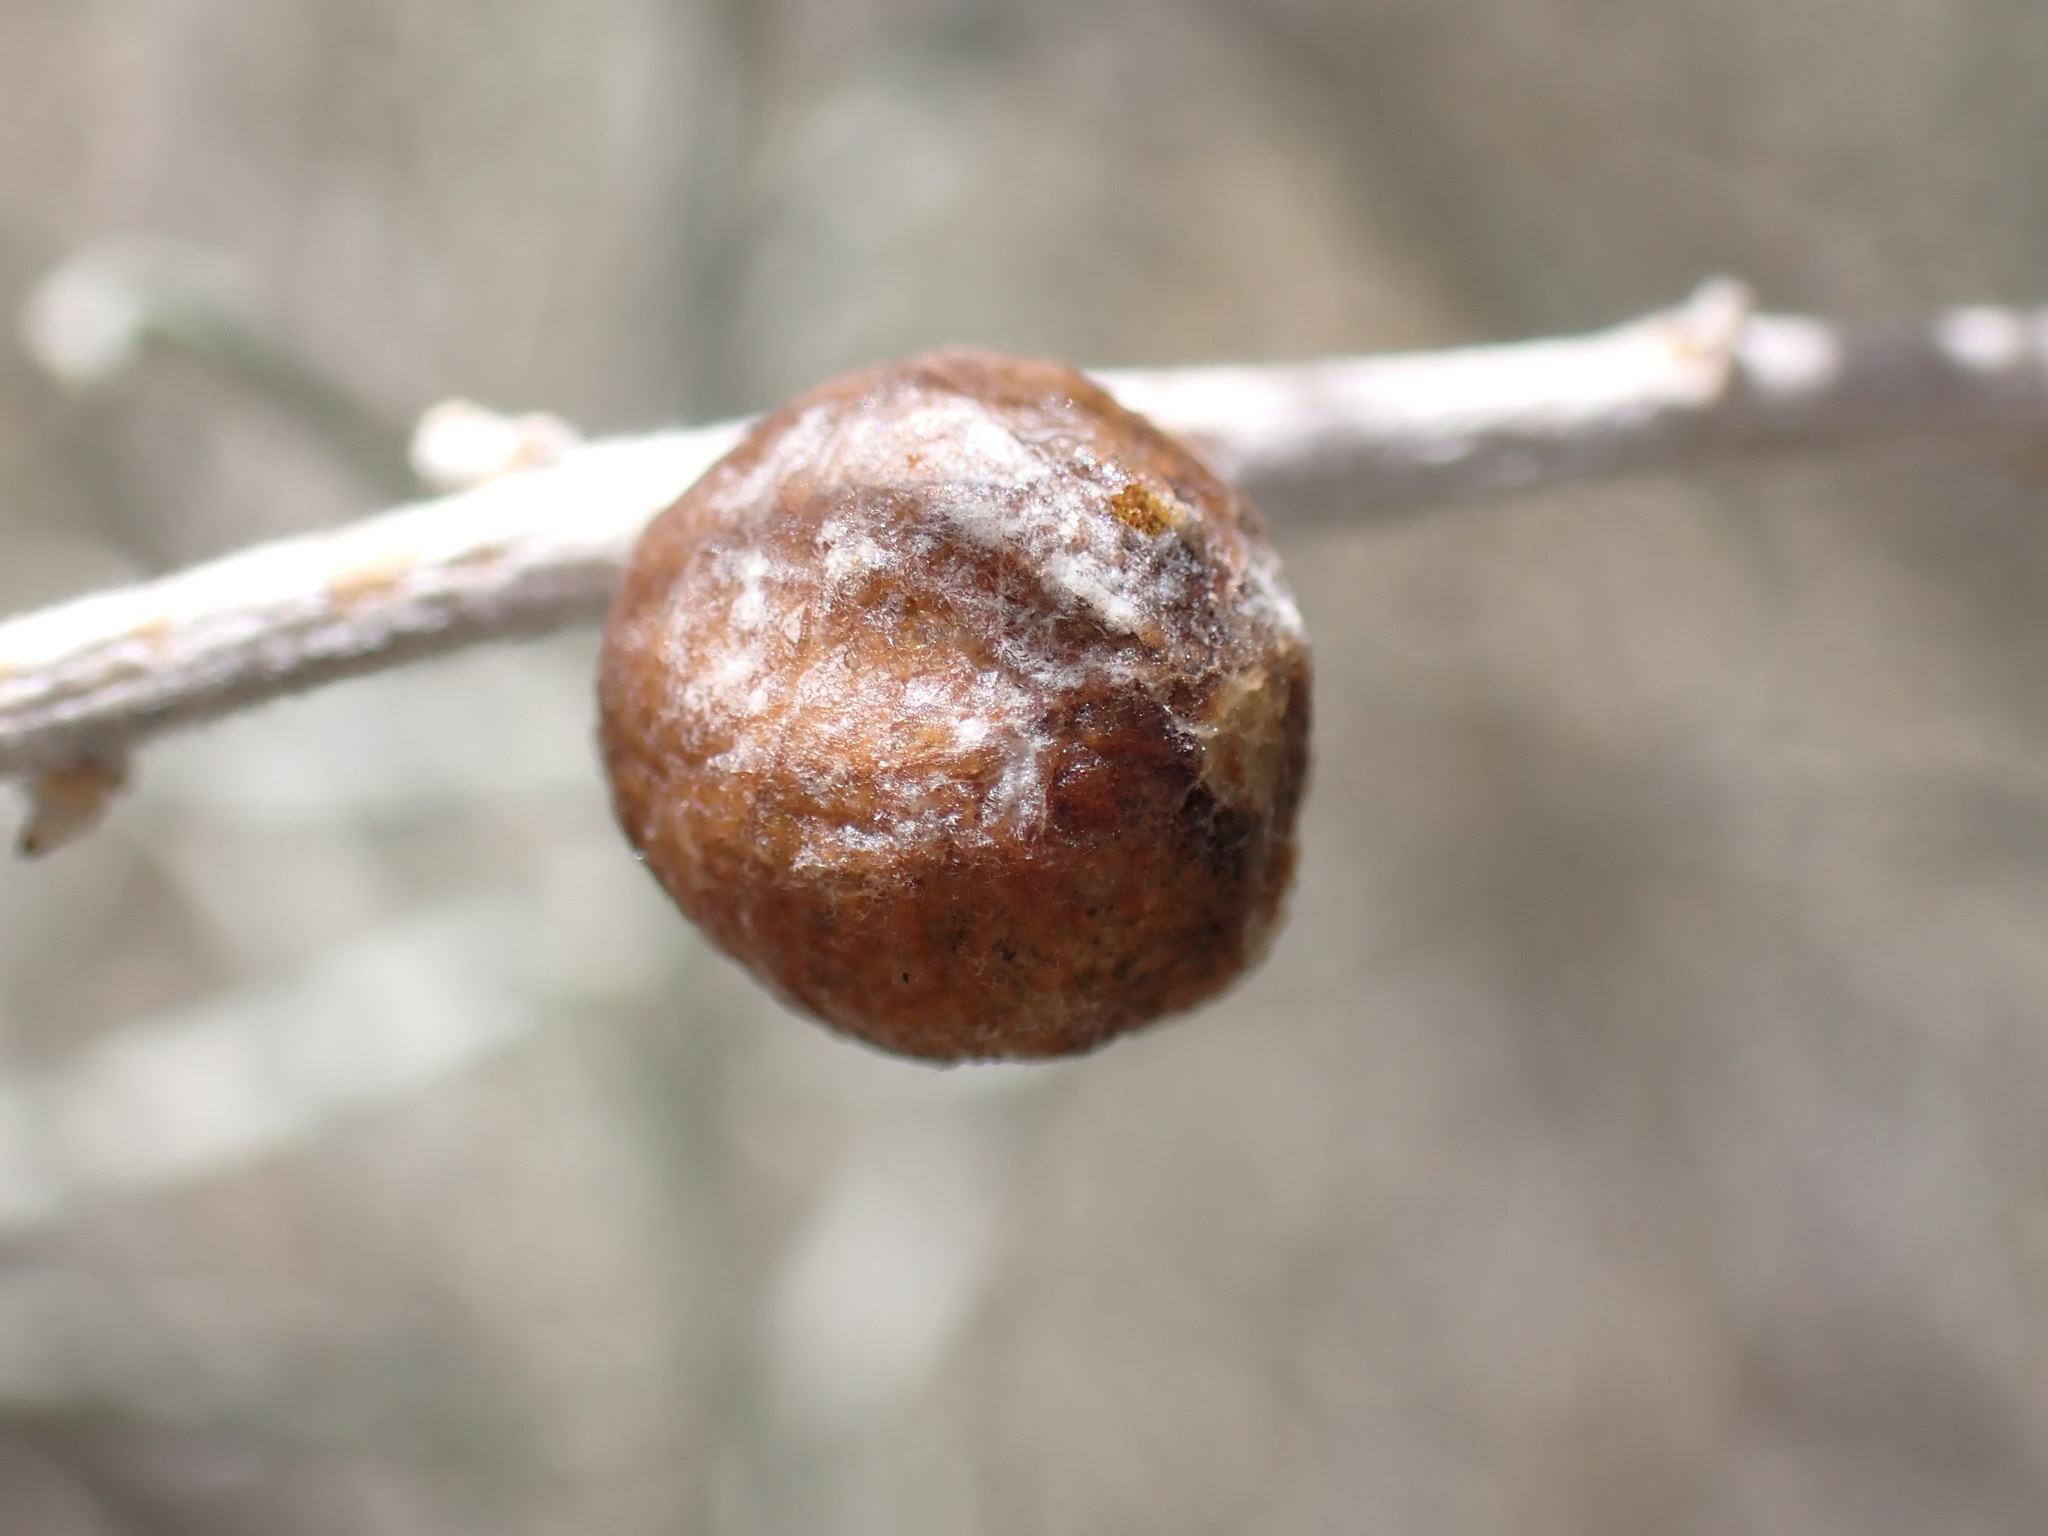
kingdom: Animalia
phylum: Arthropoda
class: Insecta
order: Diptera
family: Tephritidae
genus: Aciurina
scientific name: Aciurina trixa
